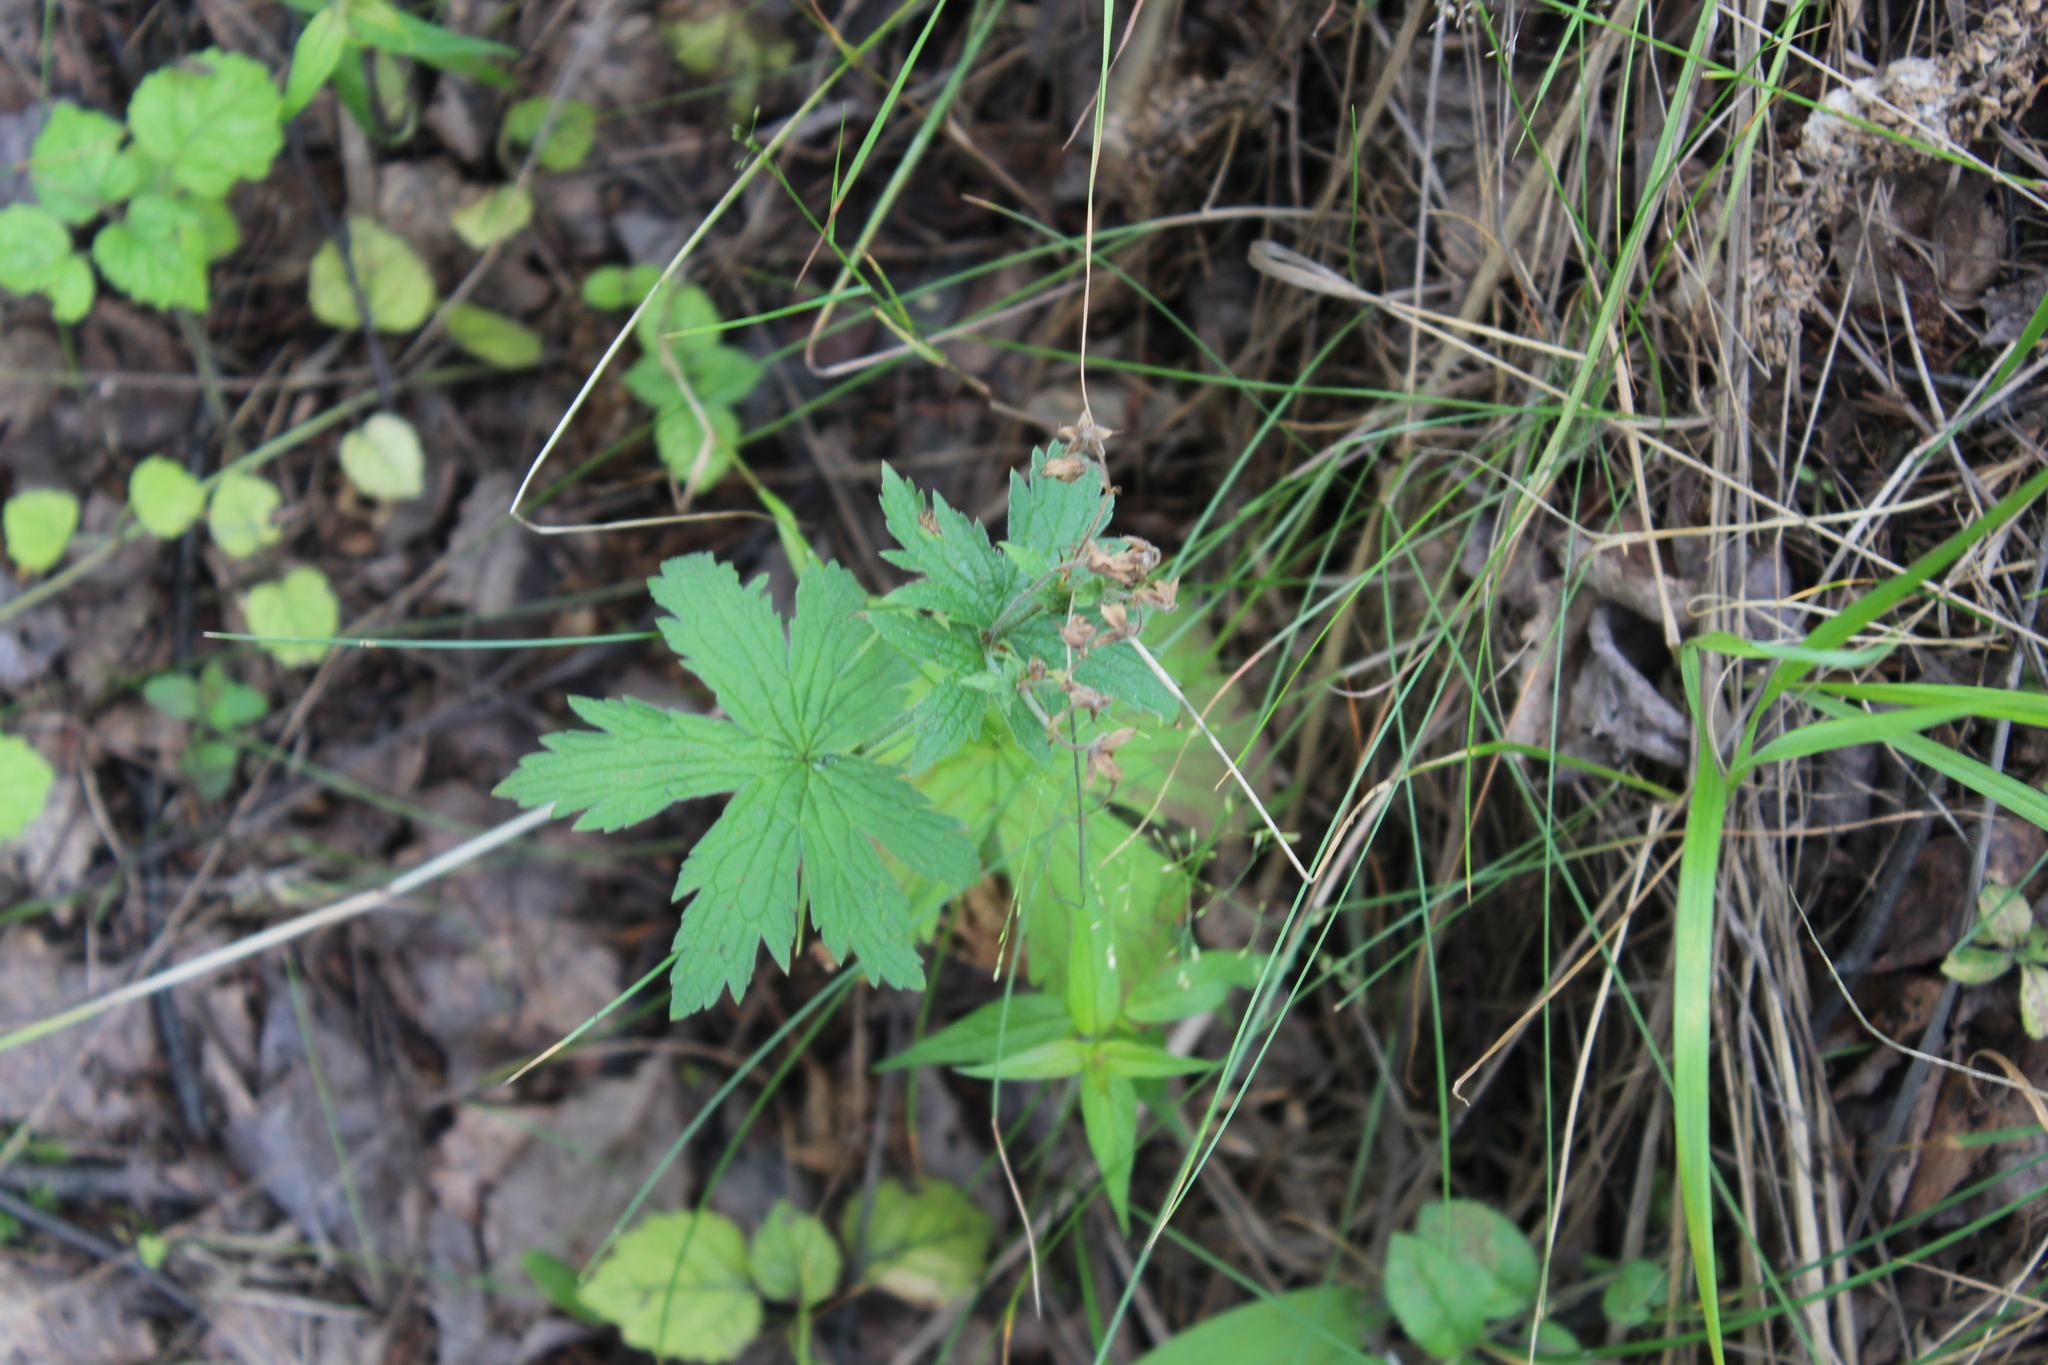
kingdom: Plantae
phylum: Tracheophyta
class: Magnoliopsida
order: Geraniales
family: Geraniaceae
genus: Geranium
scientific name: Geranium sylvaticum
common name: Wood crane's-bill
